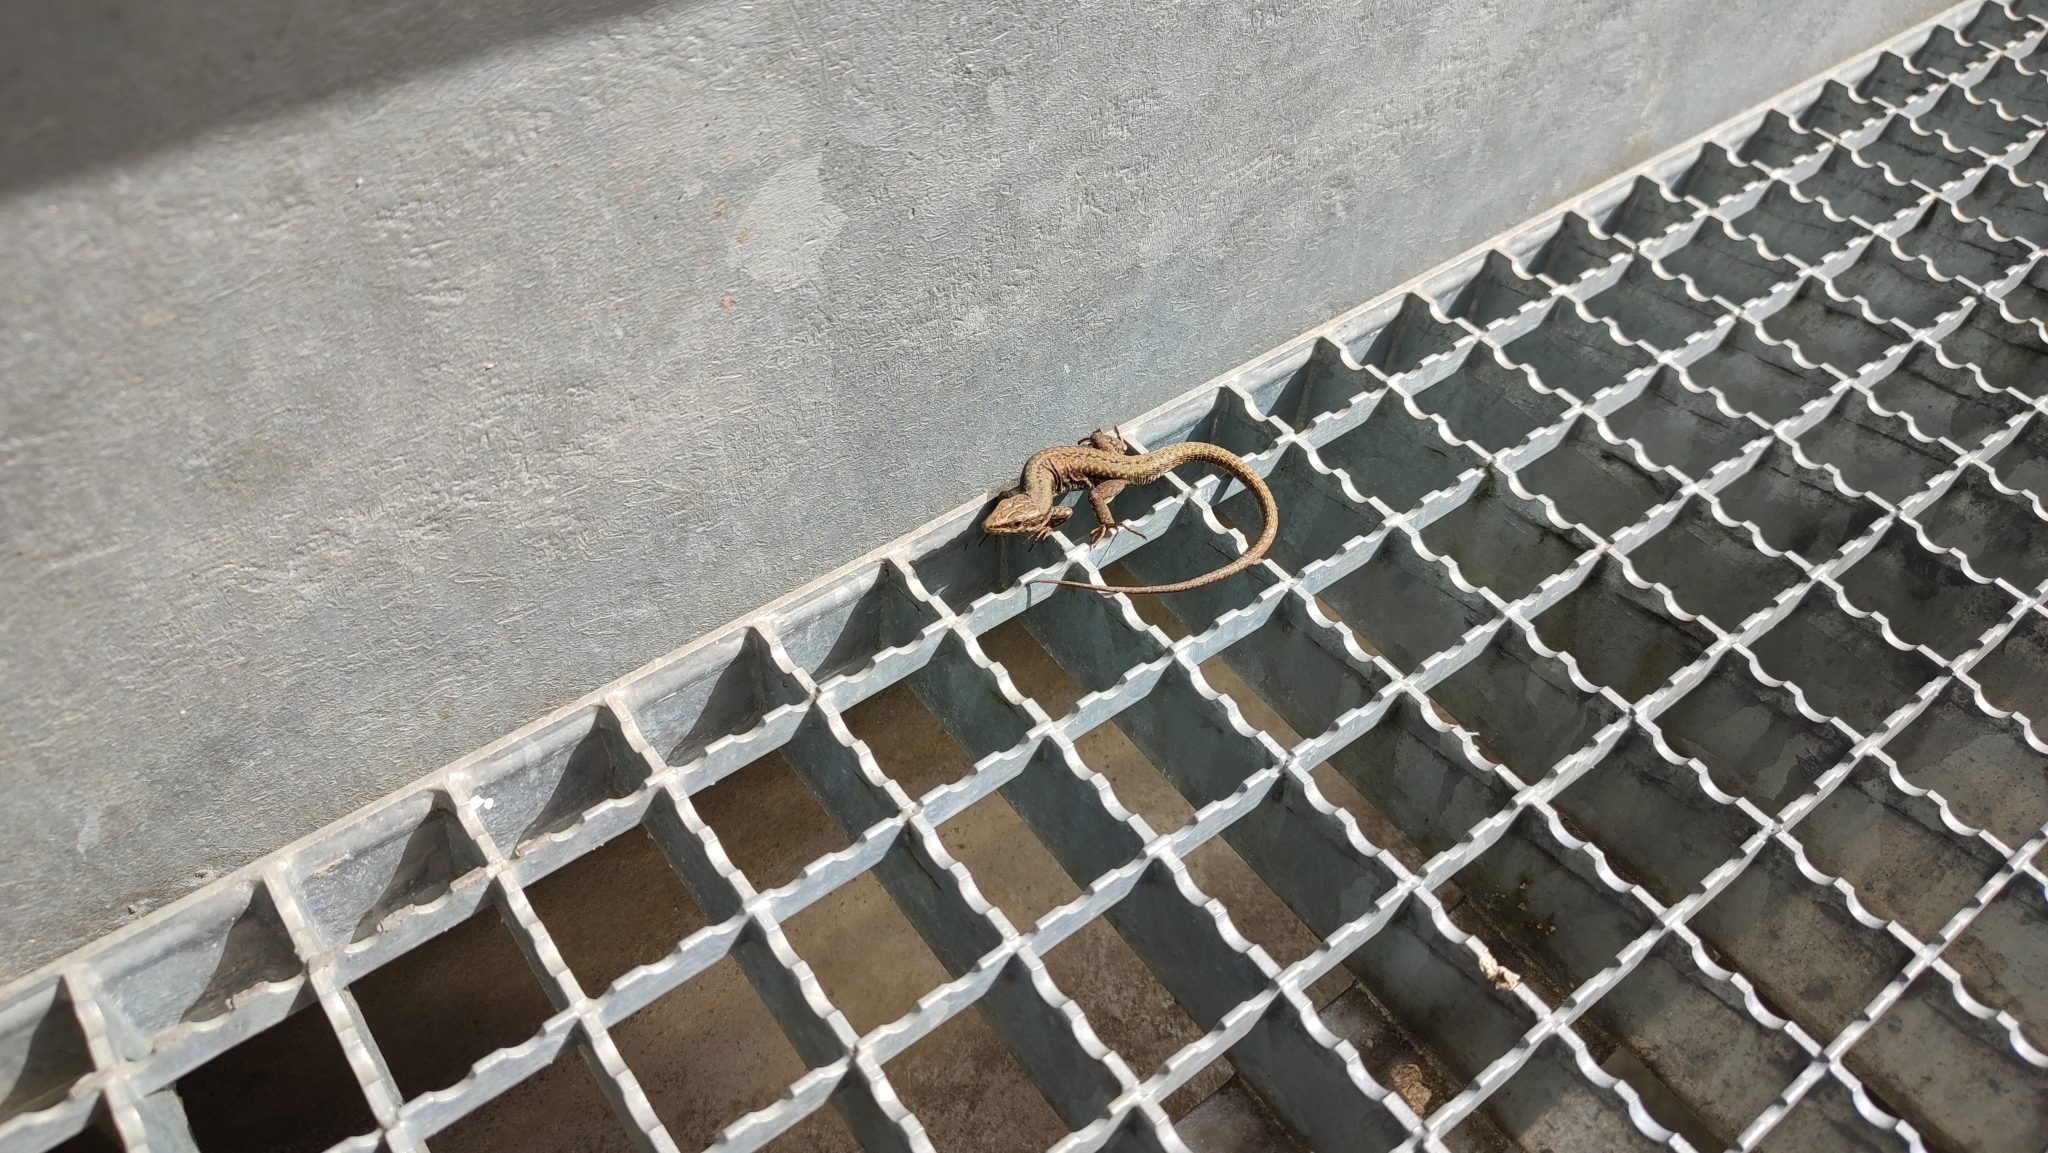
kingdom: Animalia
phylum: Chordata
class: Squamata
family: Lacertidae
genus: Podarcis
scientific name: Podarcis muralis
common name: Common wall lizard
